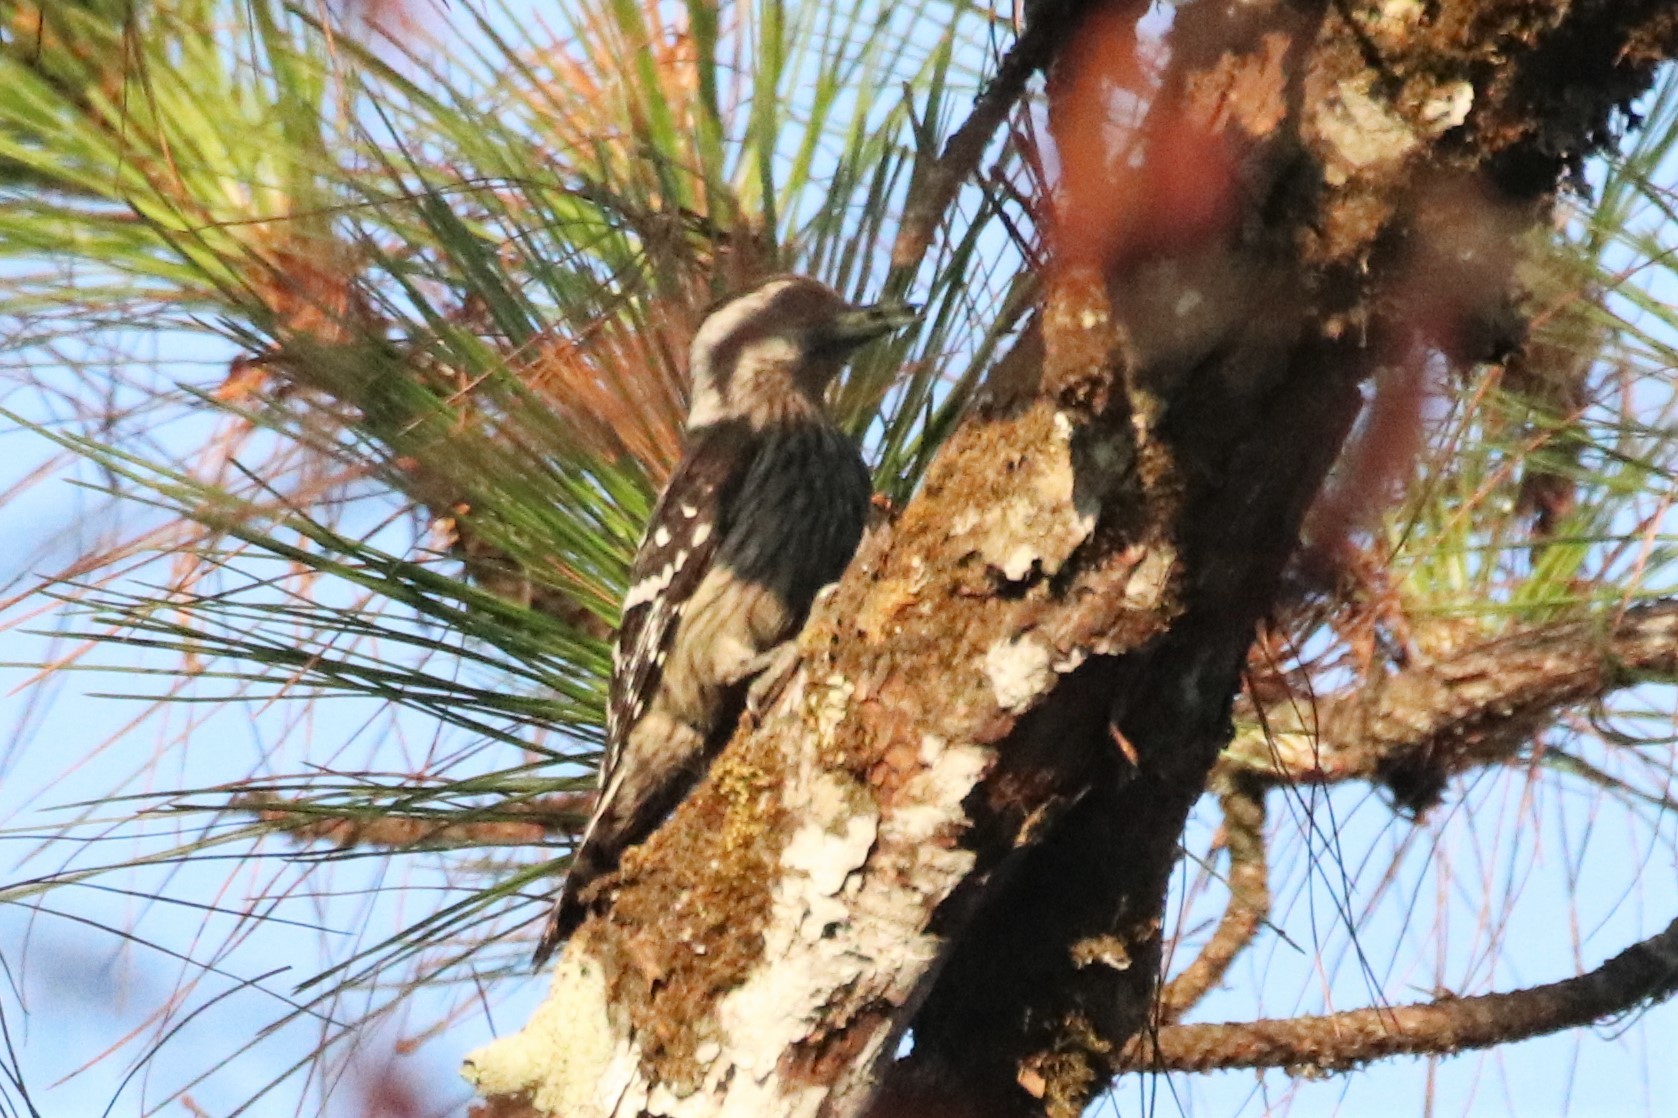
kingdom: Animalia
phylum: Chordata
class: Aves
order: Piciformes
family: Picidae
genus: Yungipicus
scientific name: Yungipicus canicapillus
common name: Grey-capped pygmy woodpecker
